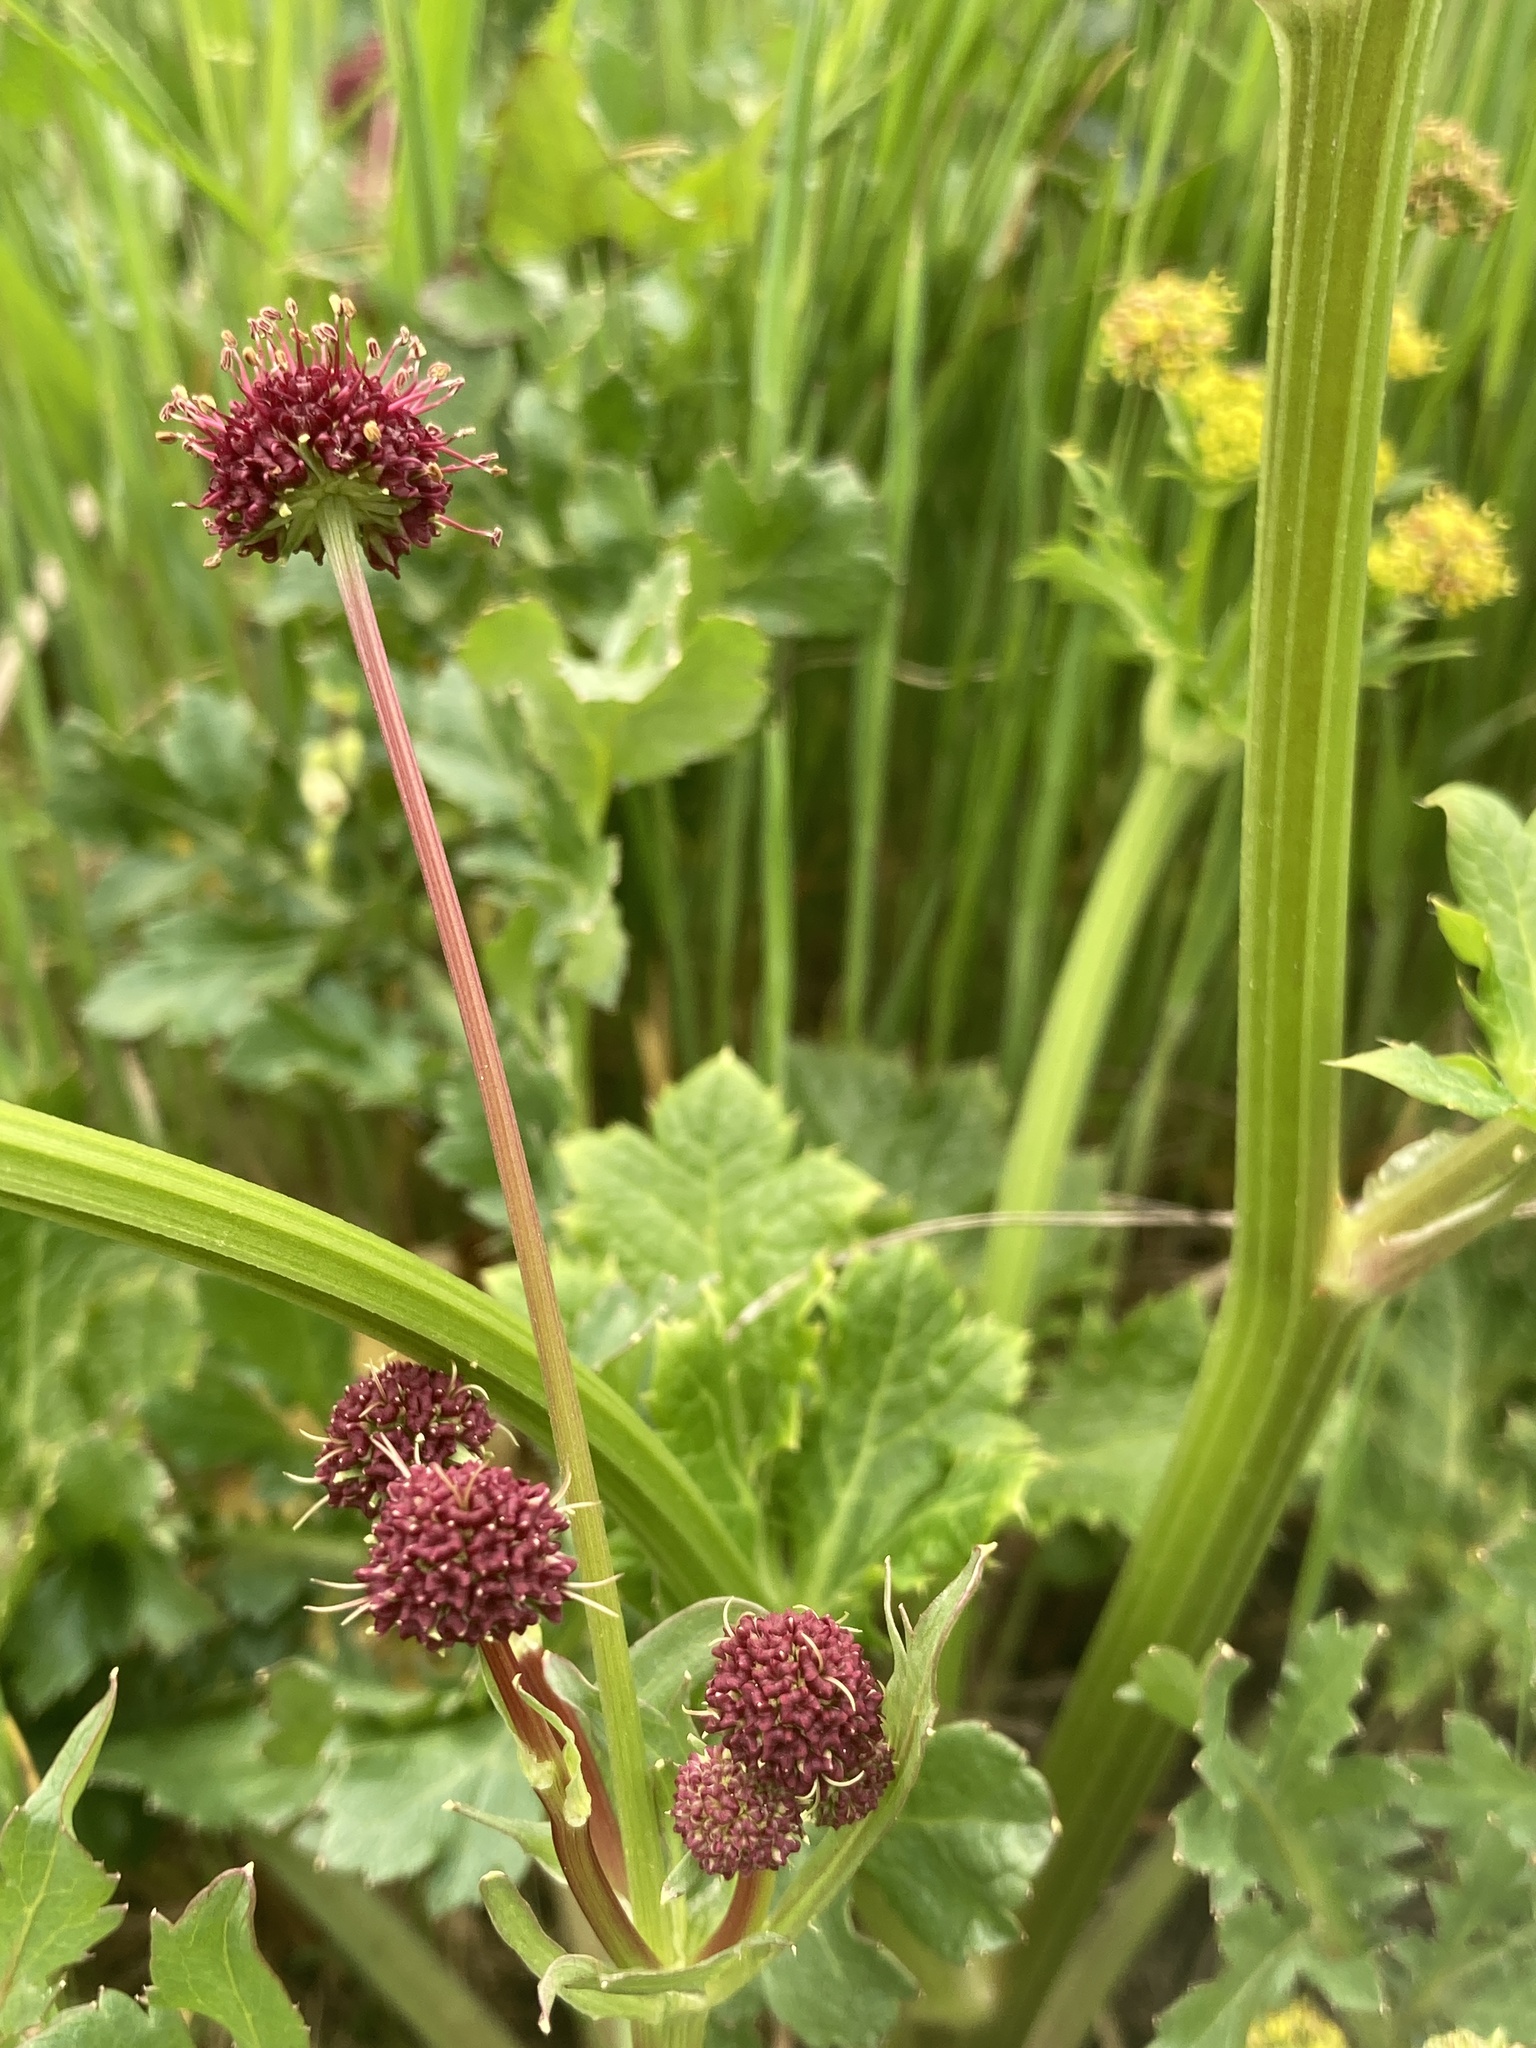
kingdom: Plantae
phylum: Tracheophyta
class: Magnoliopsida
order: Apiales
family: Apiaceae
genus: Sanicula
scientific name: Sanicula bipinnatifida
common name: Shoe-buttons
